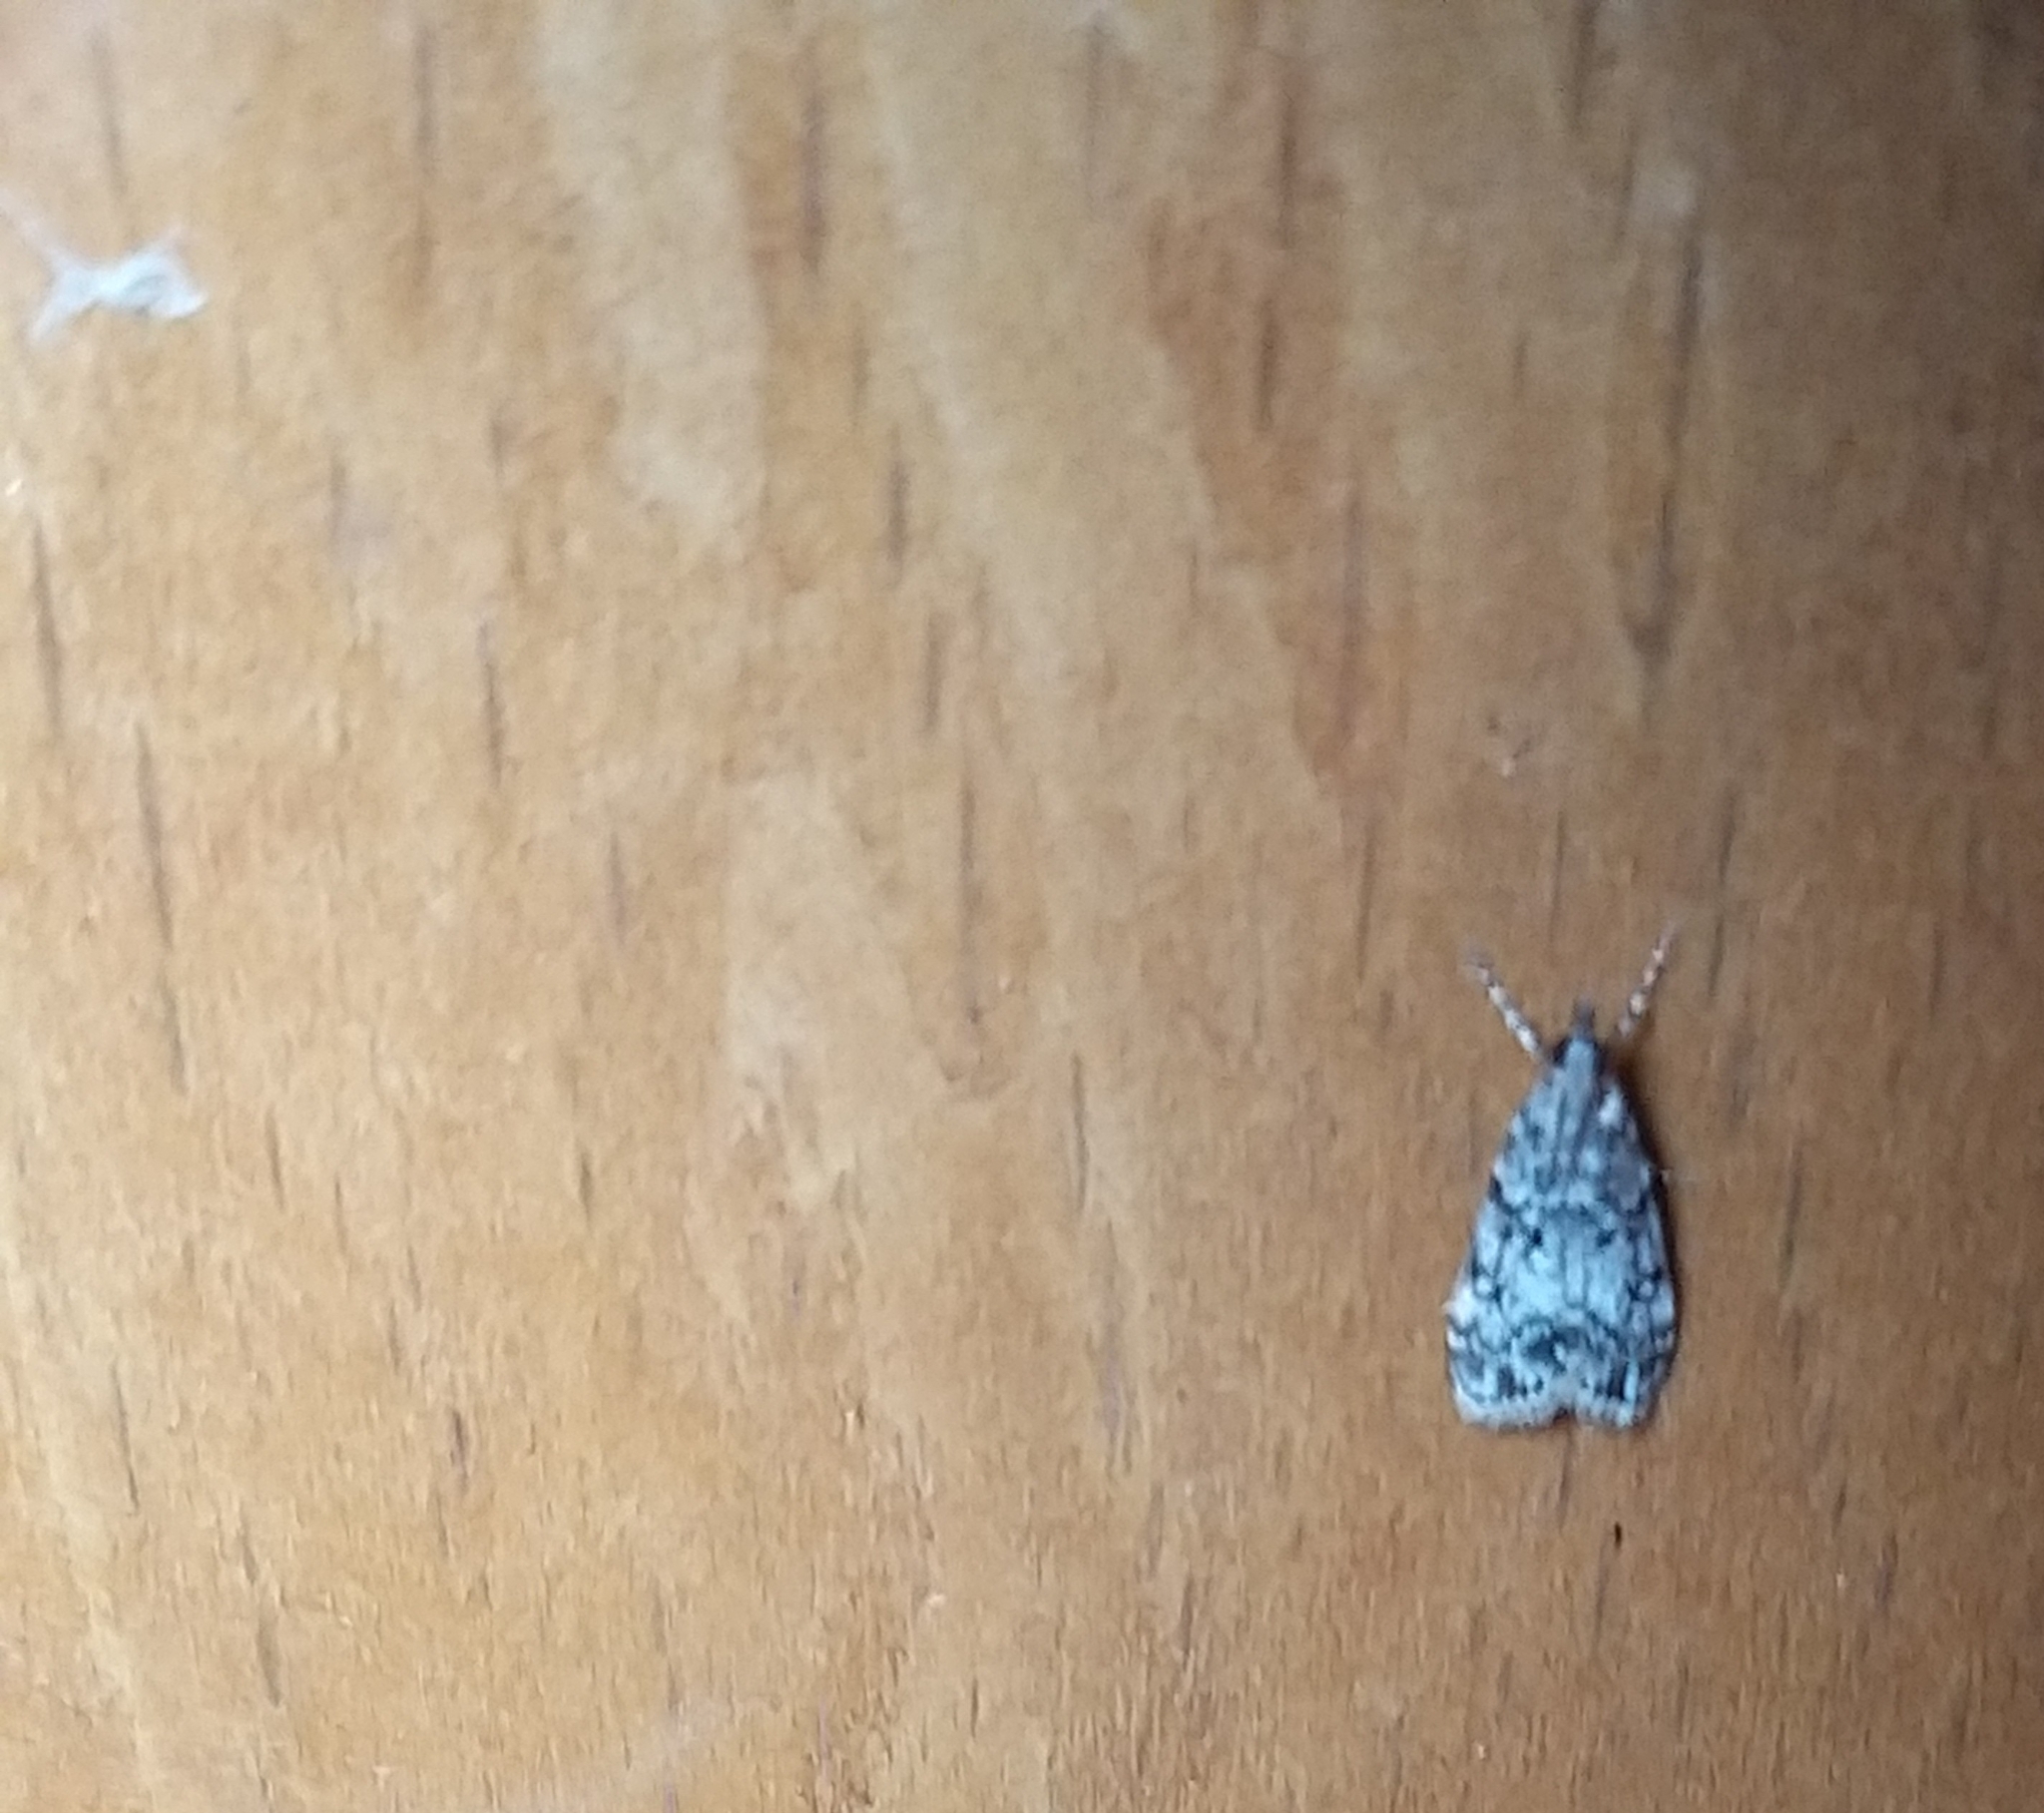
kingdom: Animalia
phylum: Arthropoda
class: Insecta
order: Lepidoptera
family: Crambidae
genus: Eudonia
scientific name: Eudonia lacustrata
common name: Little grey
